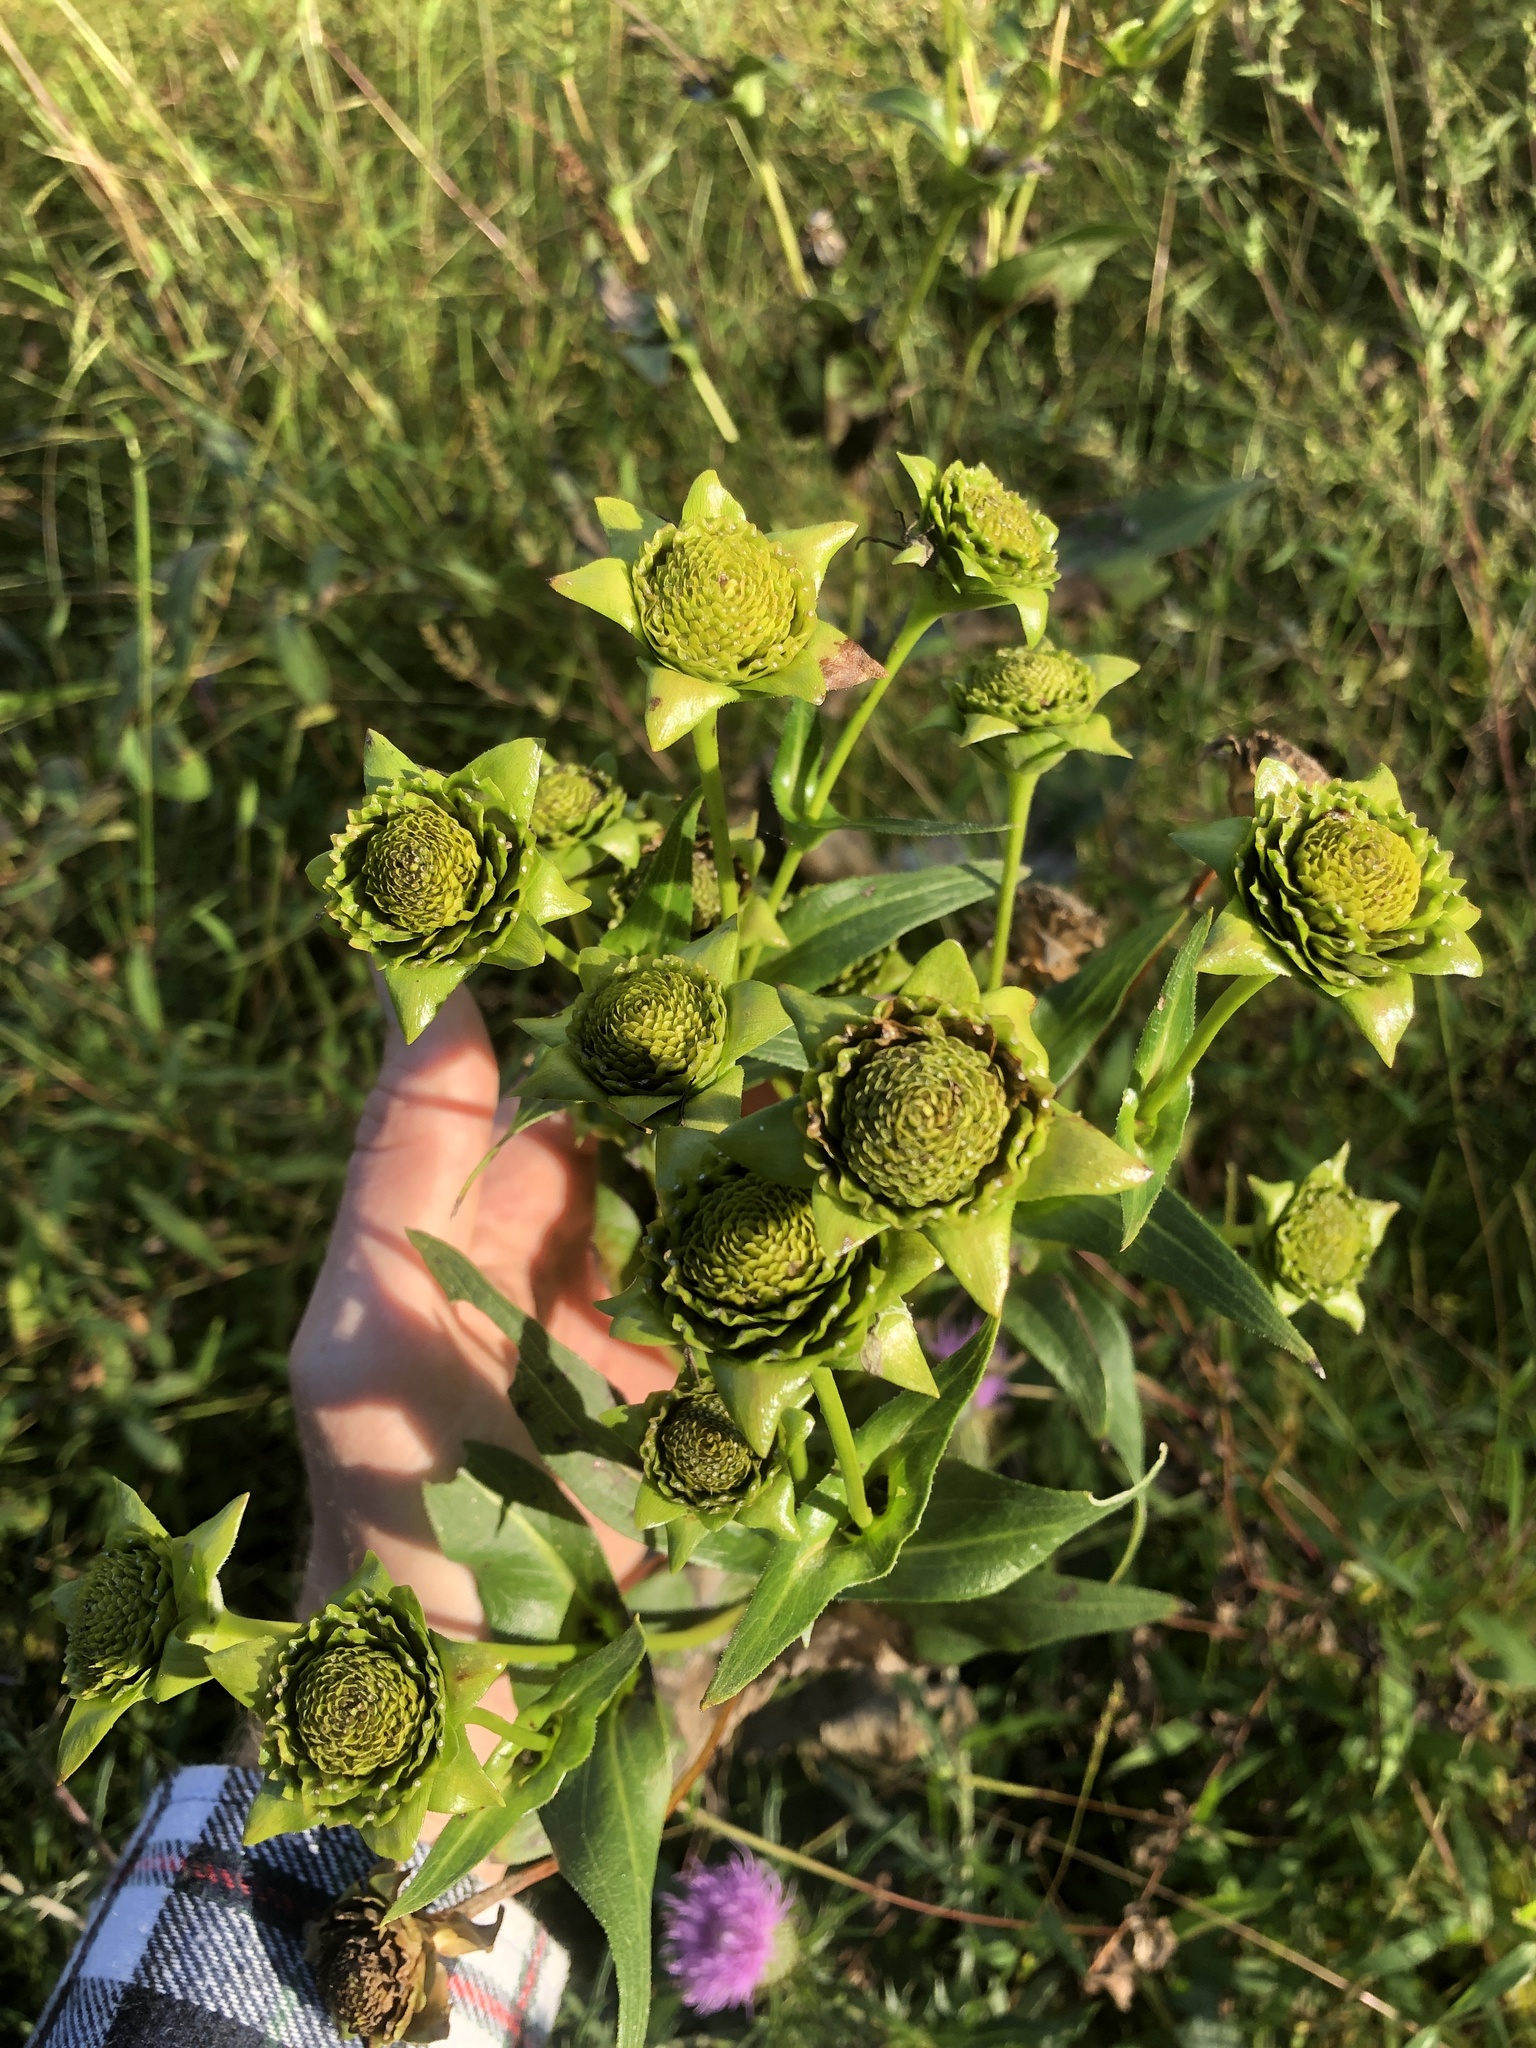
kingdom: Plantae
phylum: Tracheophyta
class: Magnoliopsida
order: Asterales
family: Asteraceae
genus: Silphium
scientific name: Silphium perfoliatum
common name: Cup-plant
